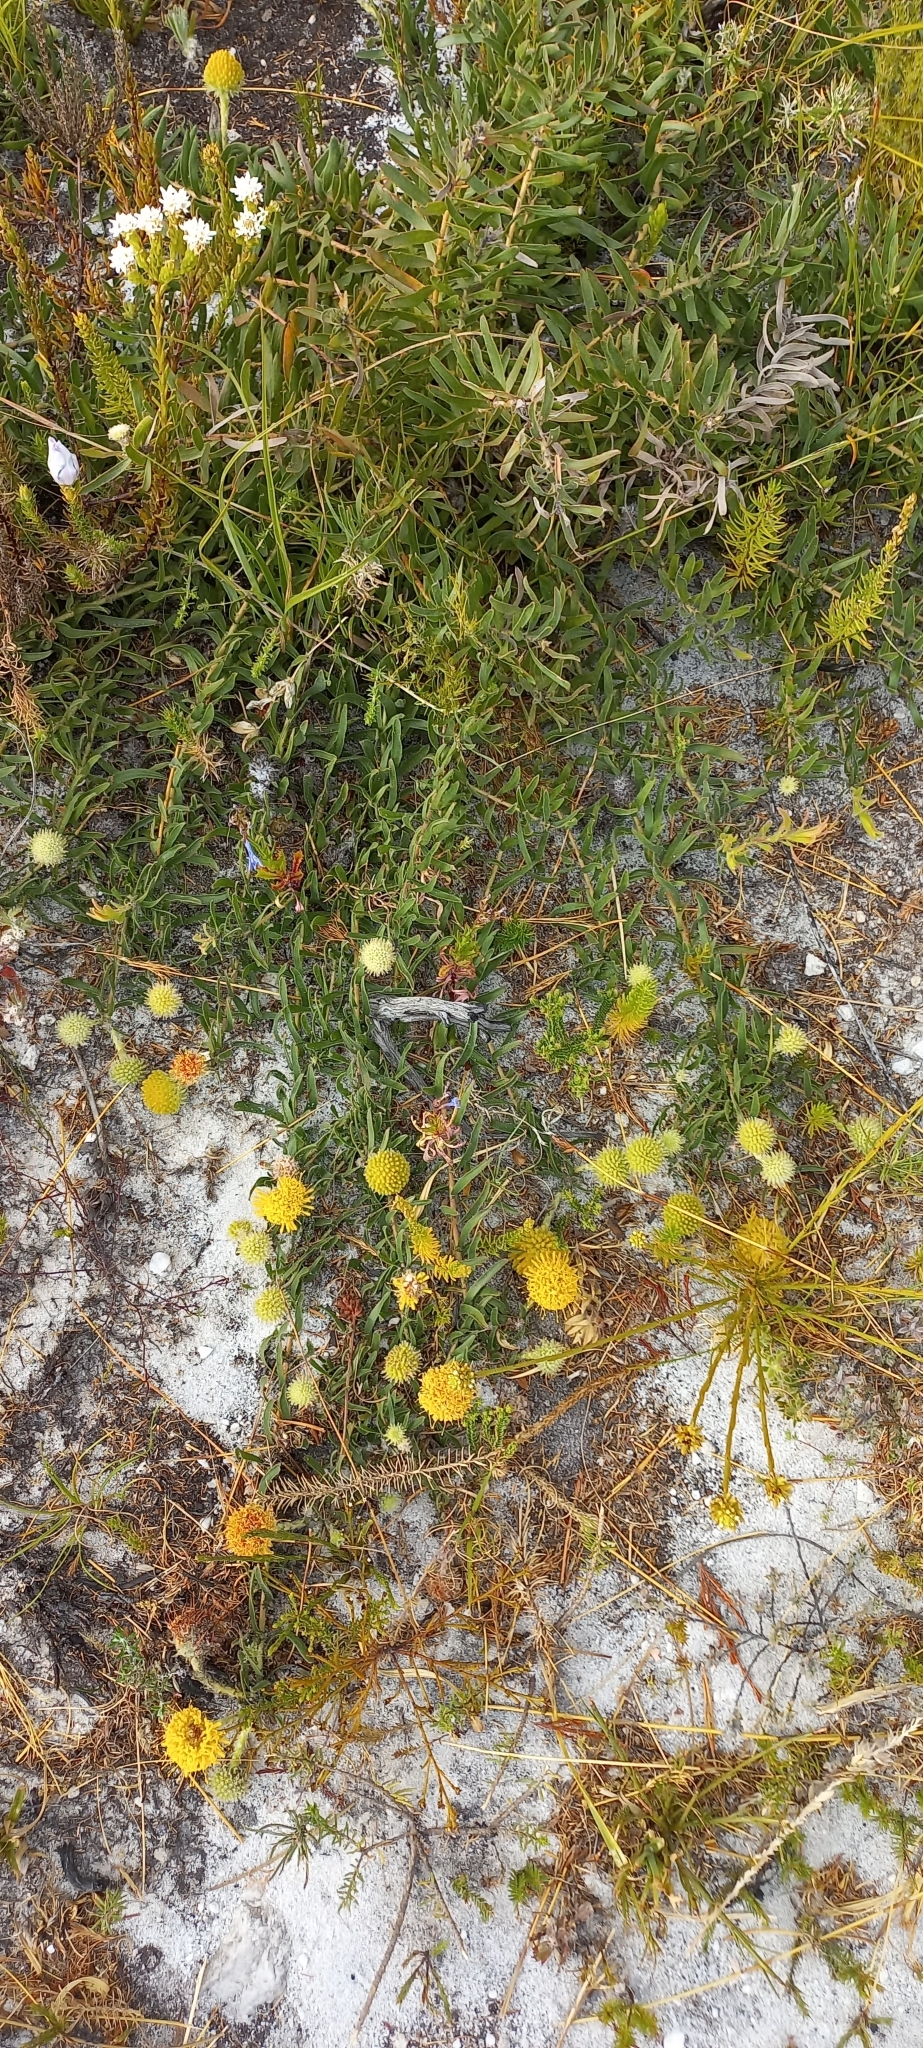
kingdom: Plantae
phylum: Tracheophyta
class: Magnoliopsida
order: Proteales
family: Proteaceae
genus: Leucospermum
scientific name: Leucospermum prostratum
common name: Yellow-trailing pincushion
